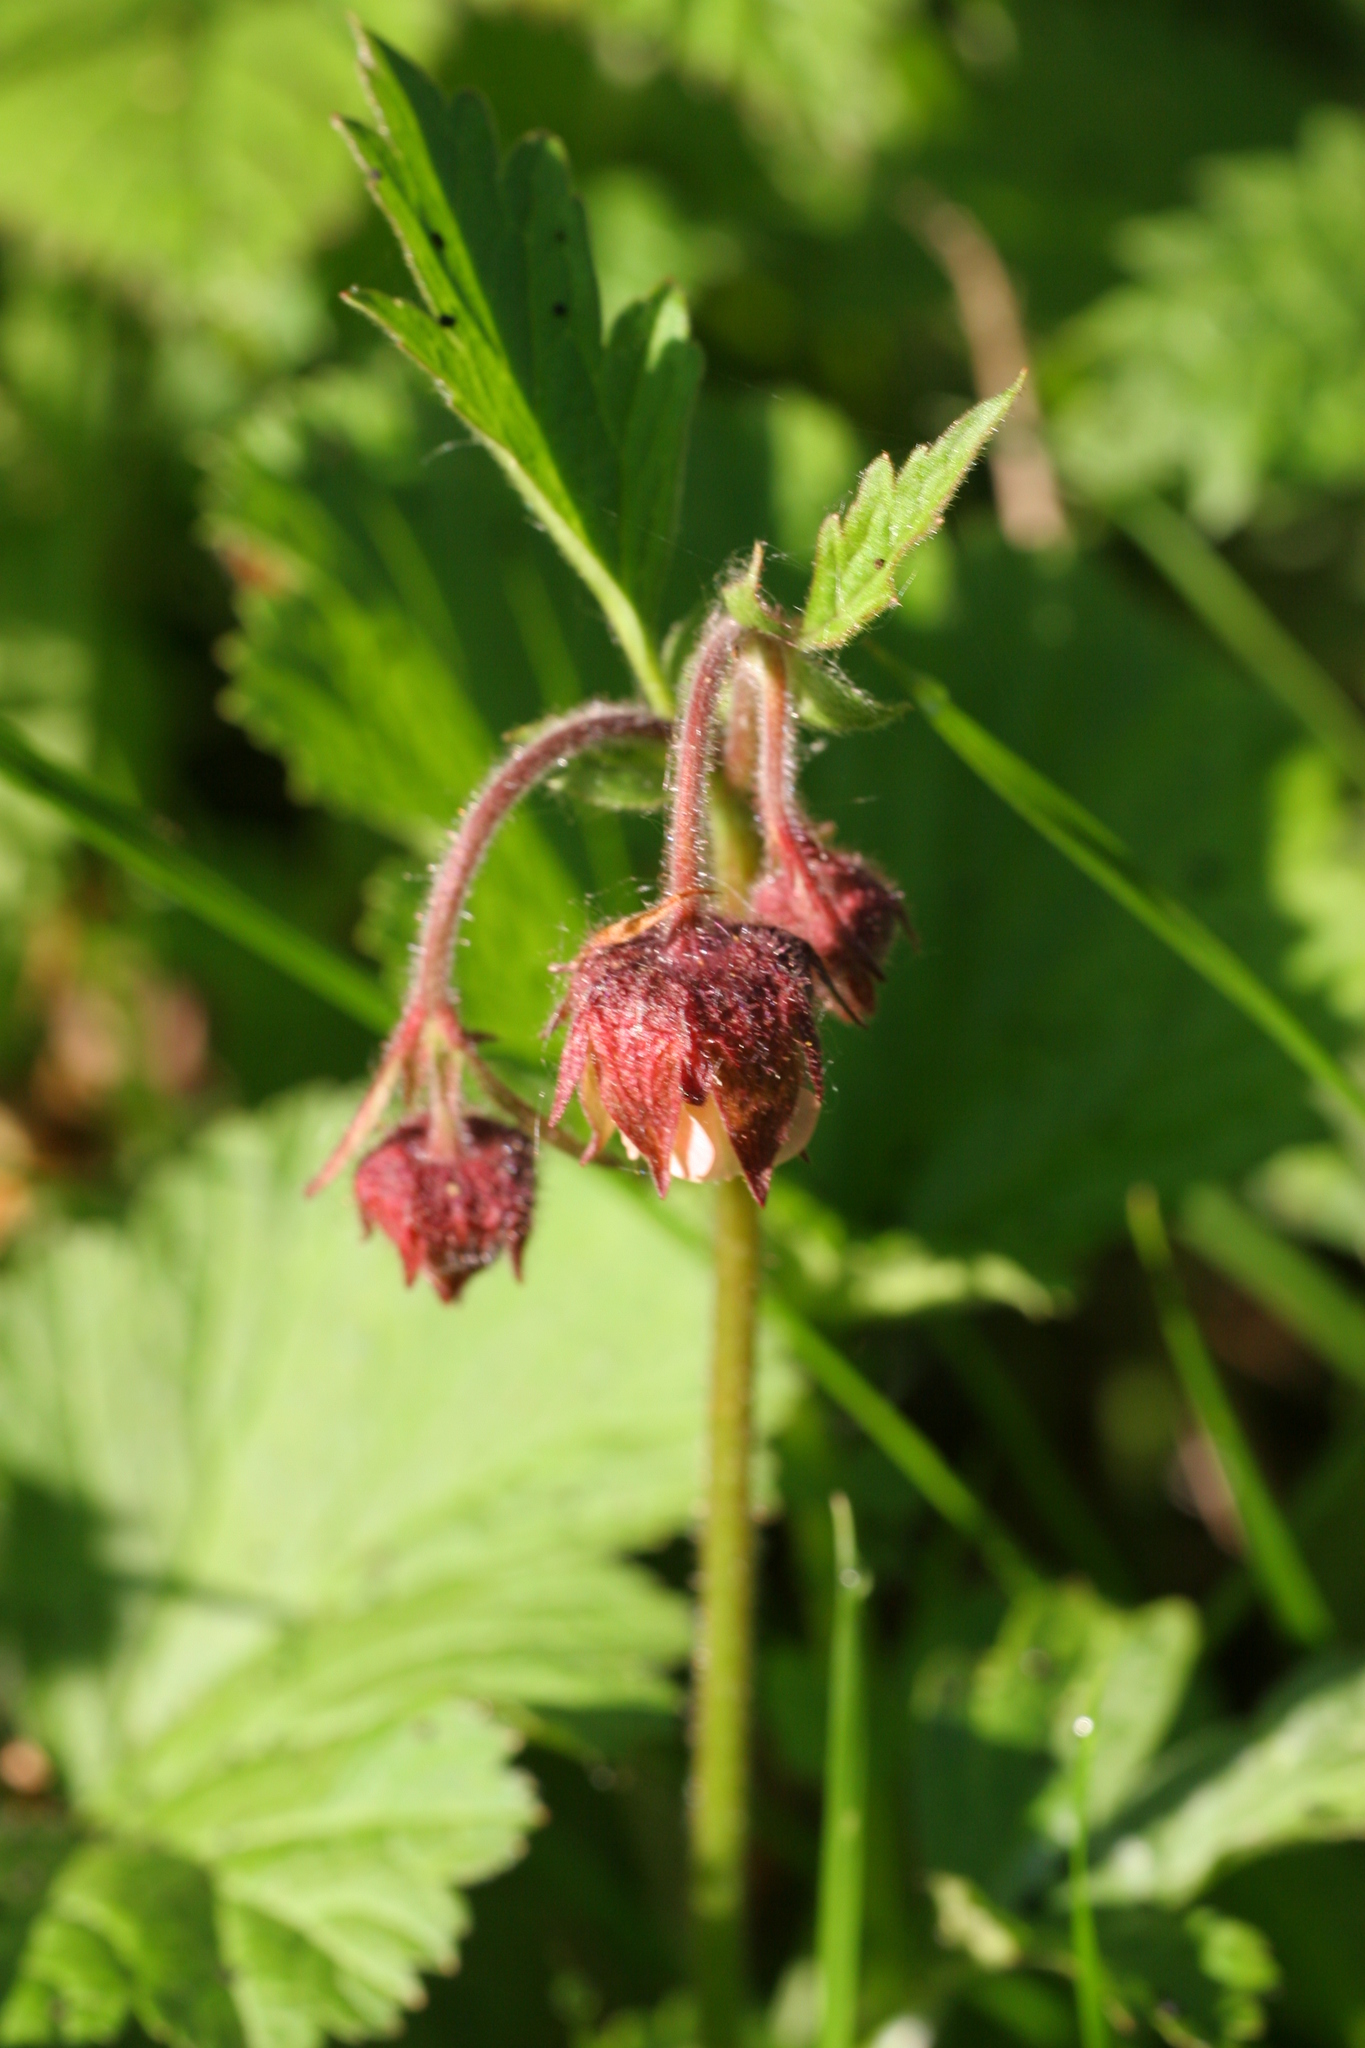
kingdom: Plantae
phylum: Tracheophyta
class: Magnoliopsida
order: Rosales
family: Rosaceae
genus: Geum
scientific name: Geum rivale
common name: Water avens
